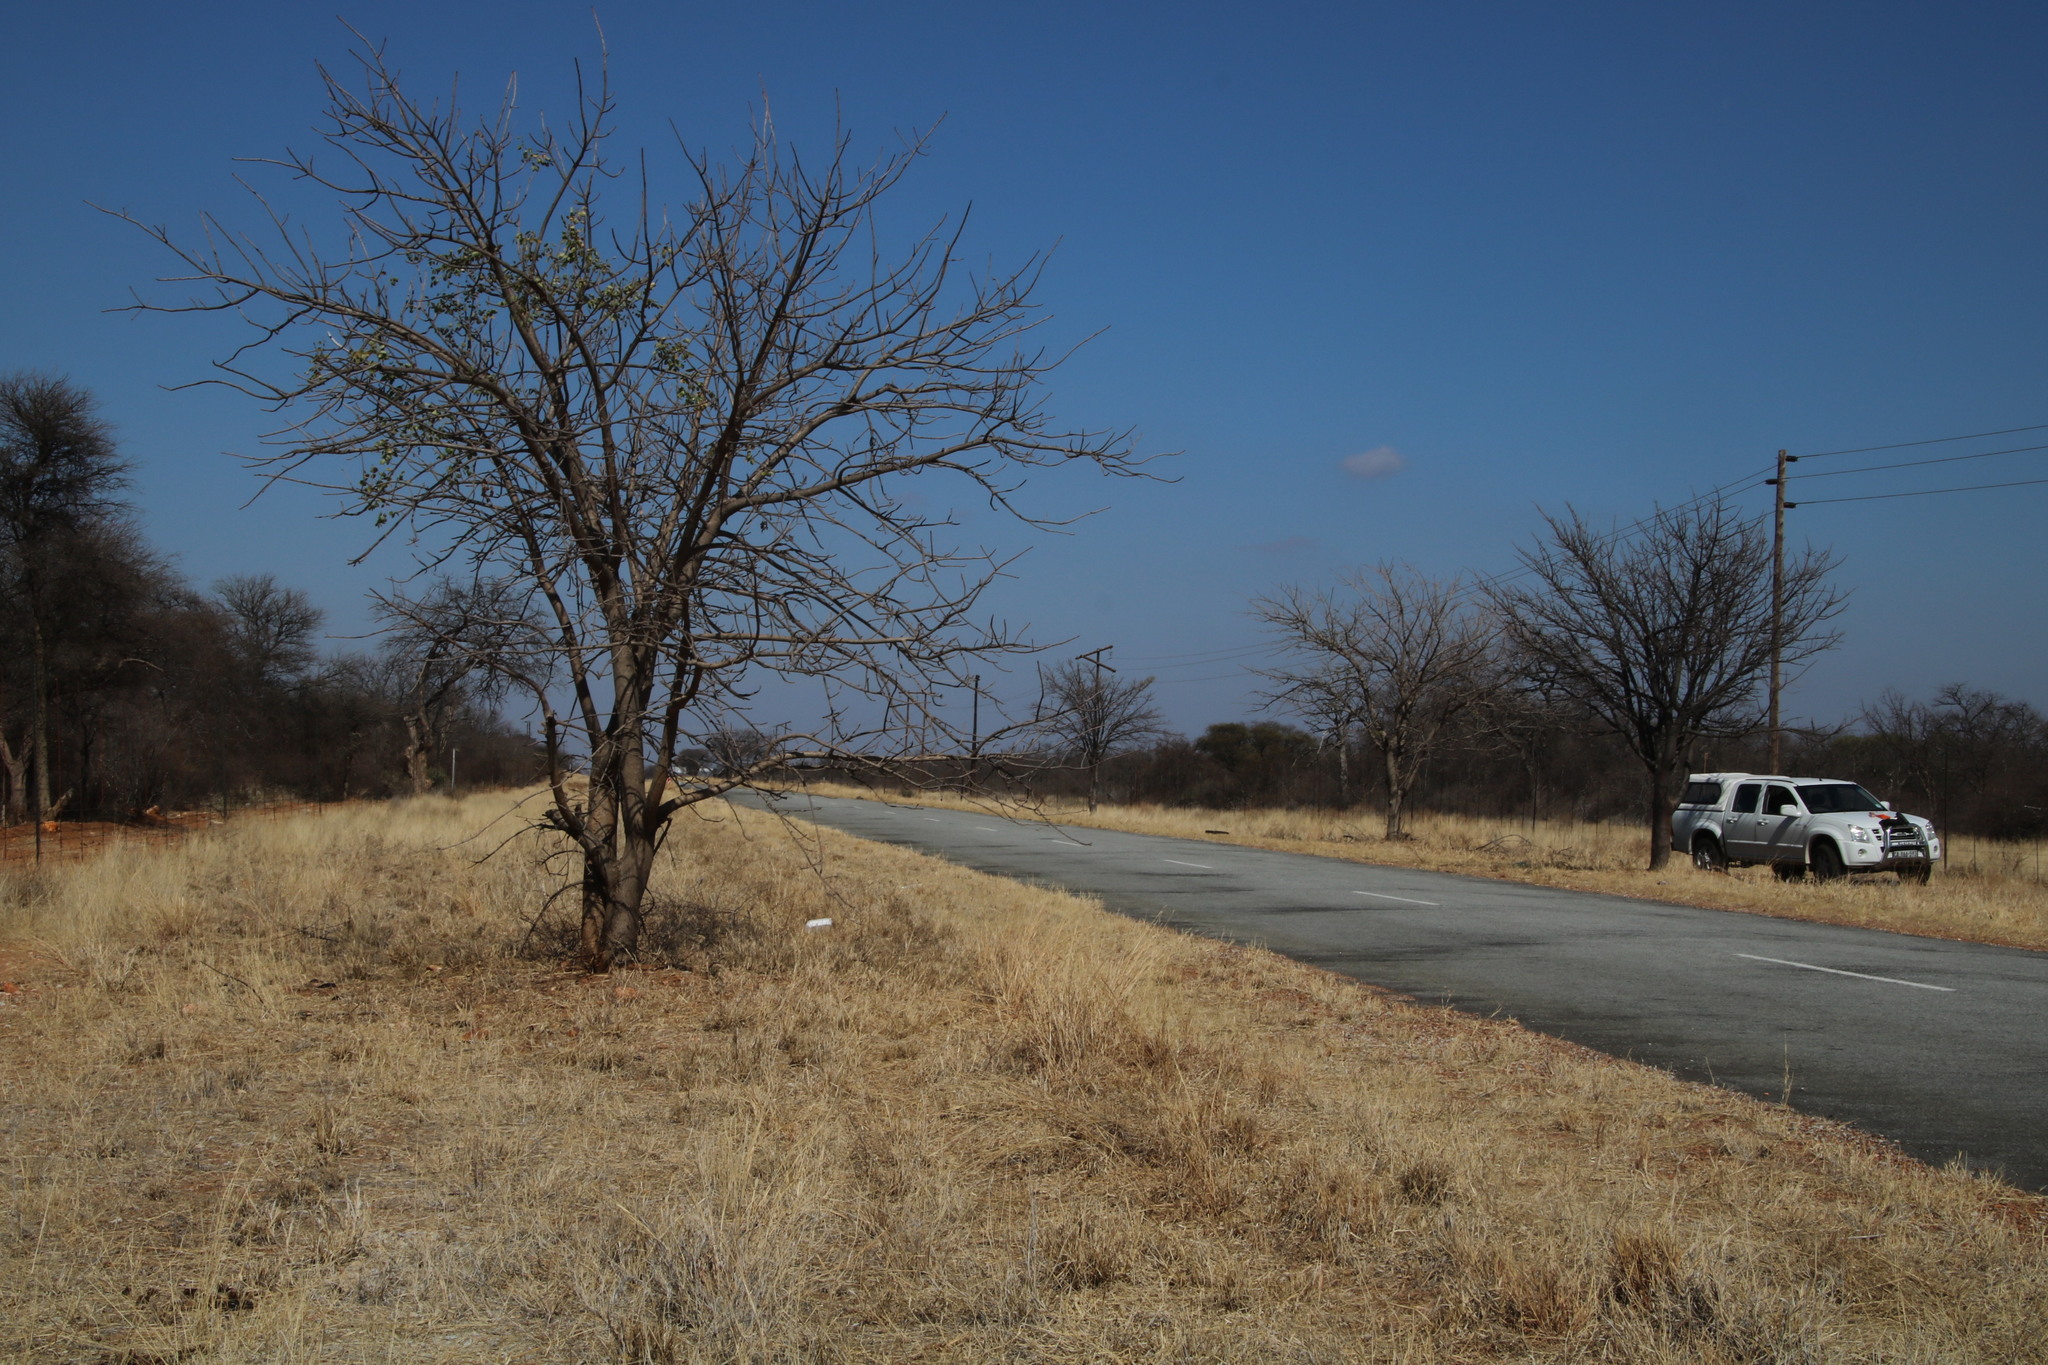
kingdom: Plantae
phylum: Tracheophyta
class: Magnoliopsida
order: Sapindales
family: Anacardiaceae
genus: Sclerocarya
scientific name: Sclerocarya birrea
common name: Marula
